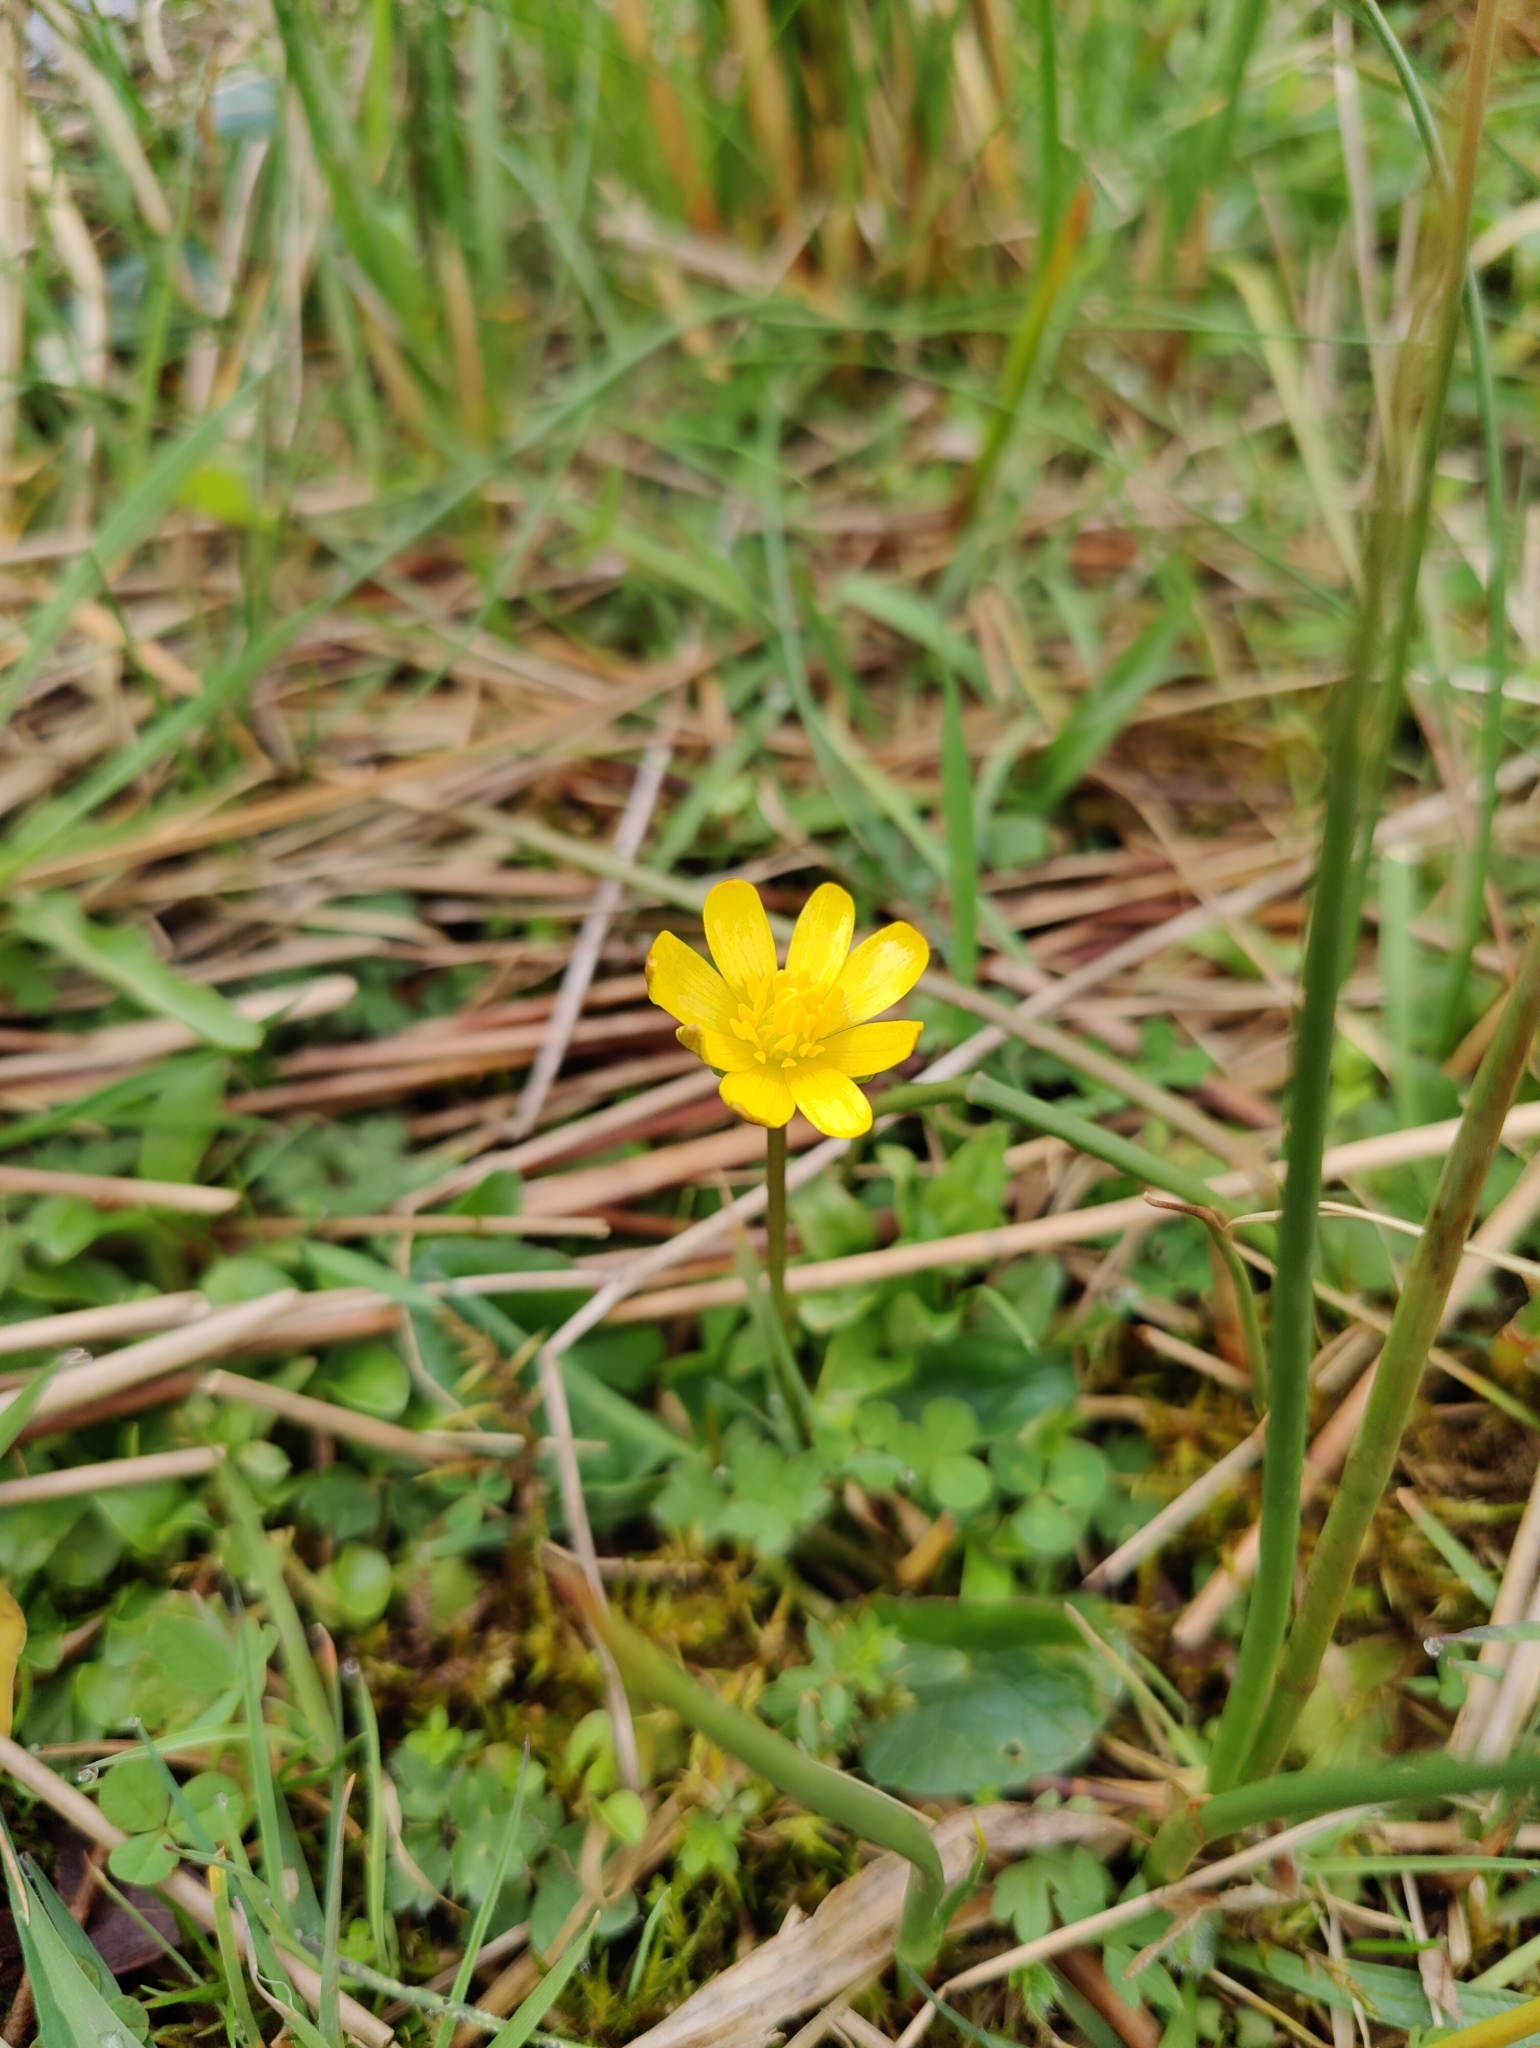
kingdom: Plantae
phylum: Tracheophyta
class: Magnoliopsida
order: Ranunculales
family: Ranunculaceae
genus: Ficaria
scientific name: Ficaria verna
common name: Lesser celandine
